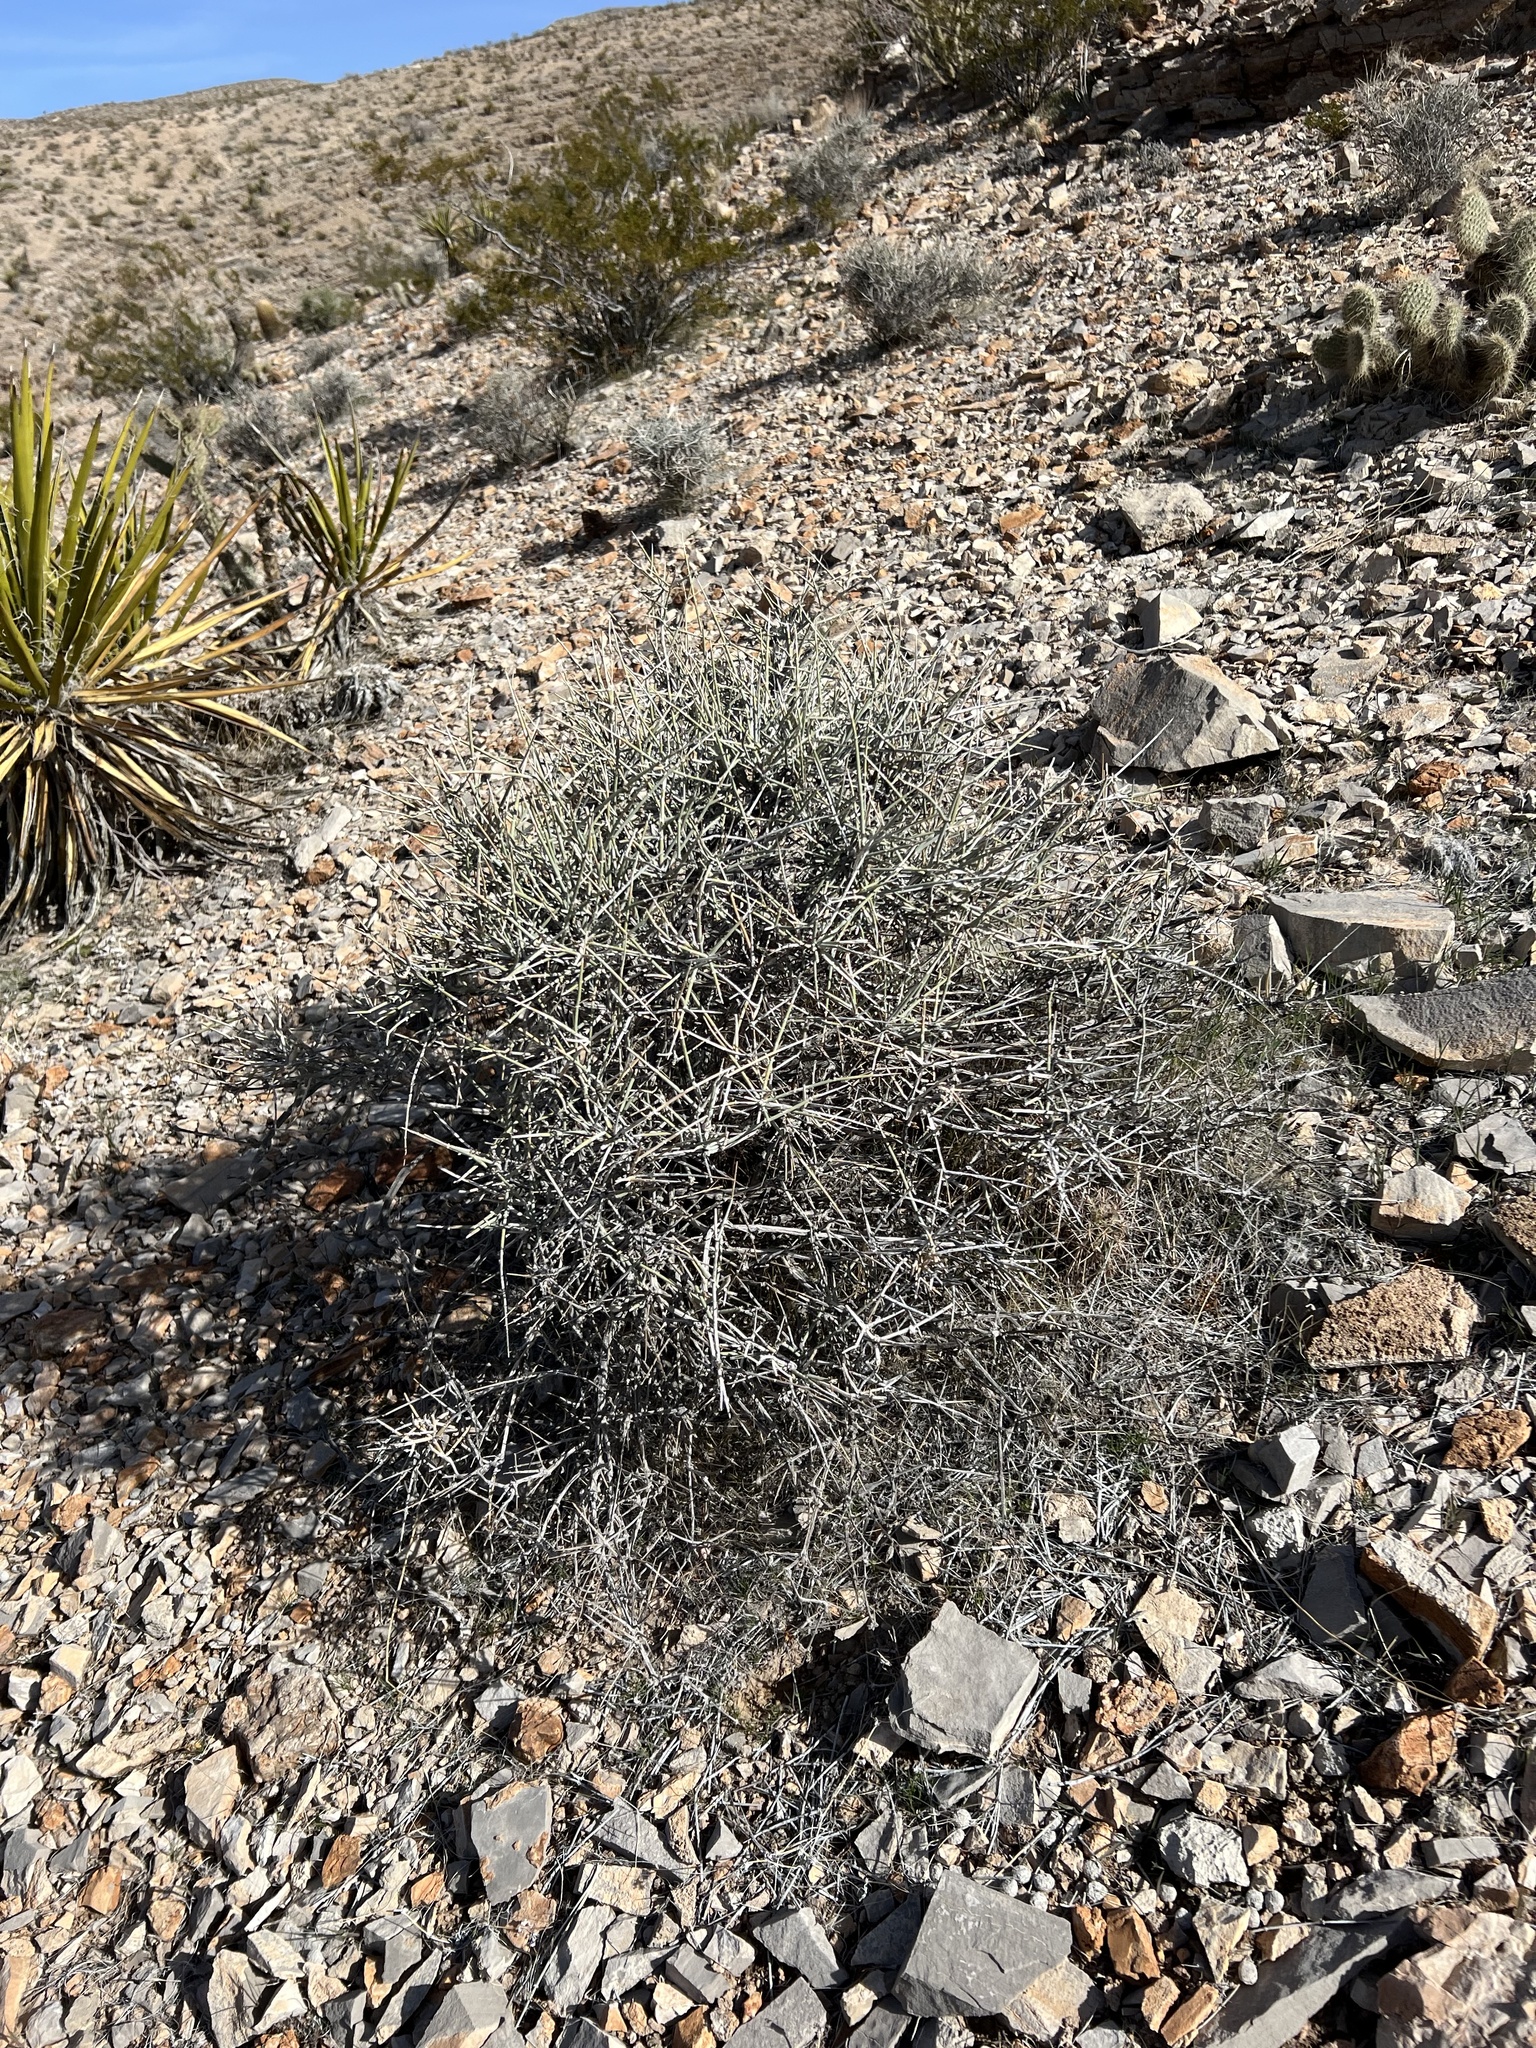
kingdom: Plantae
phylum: Tracheophyta
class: Gnetopsida
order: Ephedrales
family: Ephedraceae
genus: Ephedra
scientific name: Ephedra nevadensis
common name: Gray ephedra
